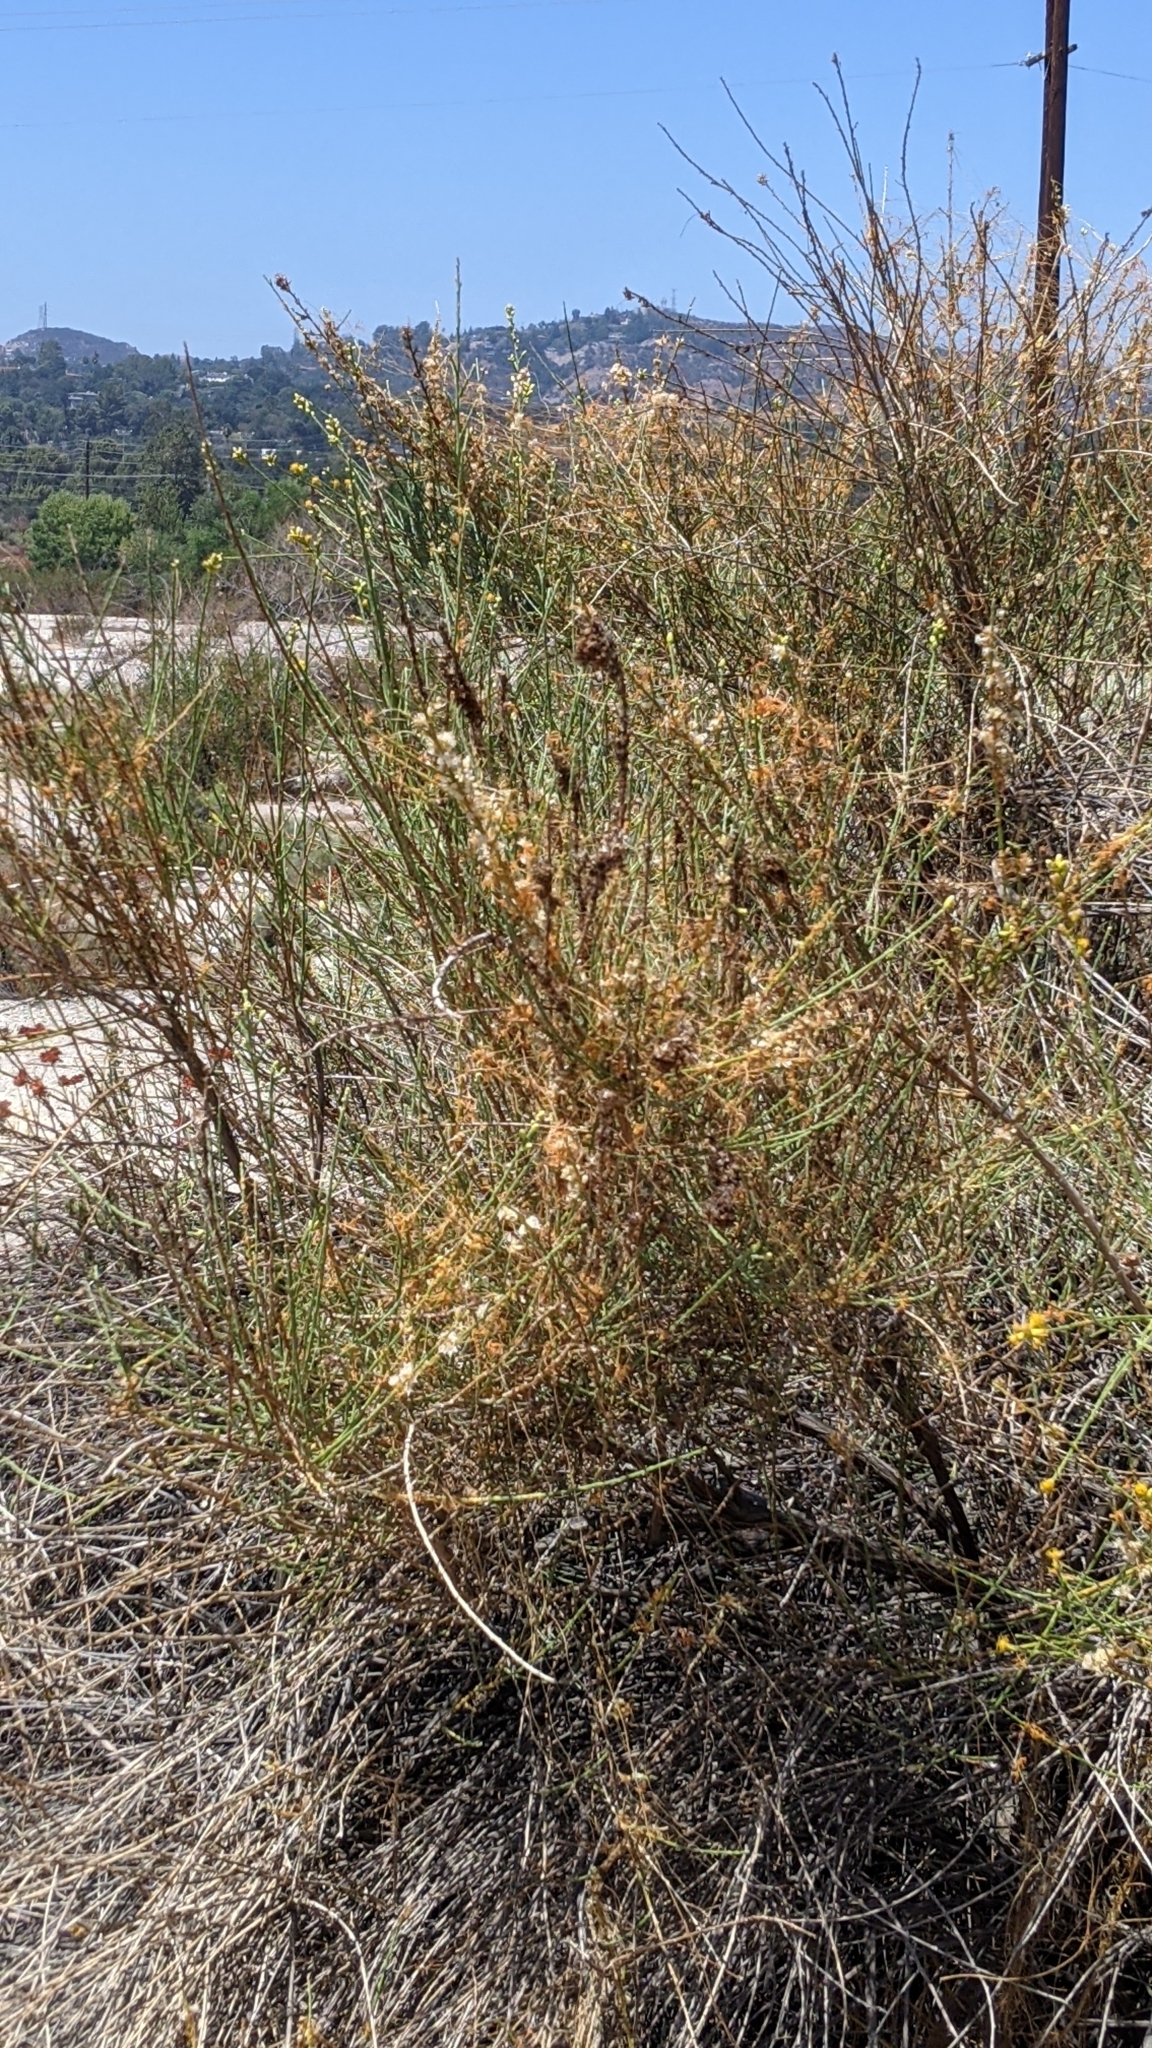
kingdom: Plantae
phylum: Tracheophyta
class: Magnoliopsida
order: Solanales
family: Convolvulaceae
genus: Cuscuta
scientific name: Cuscuta californica
